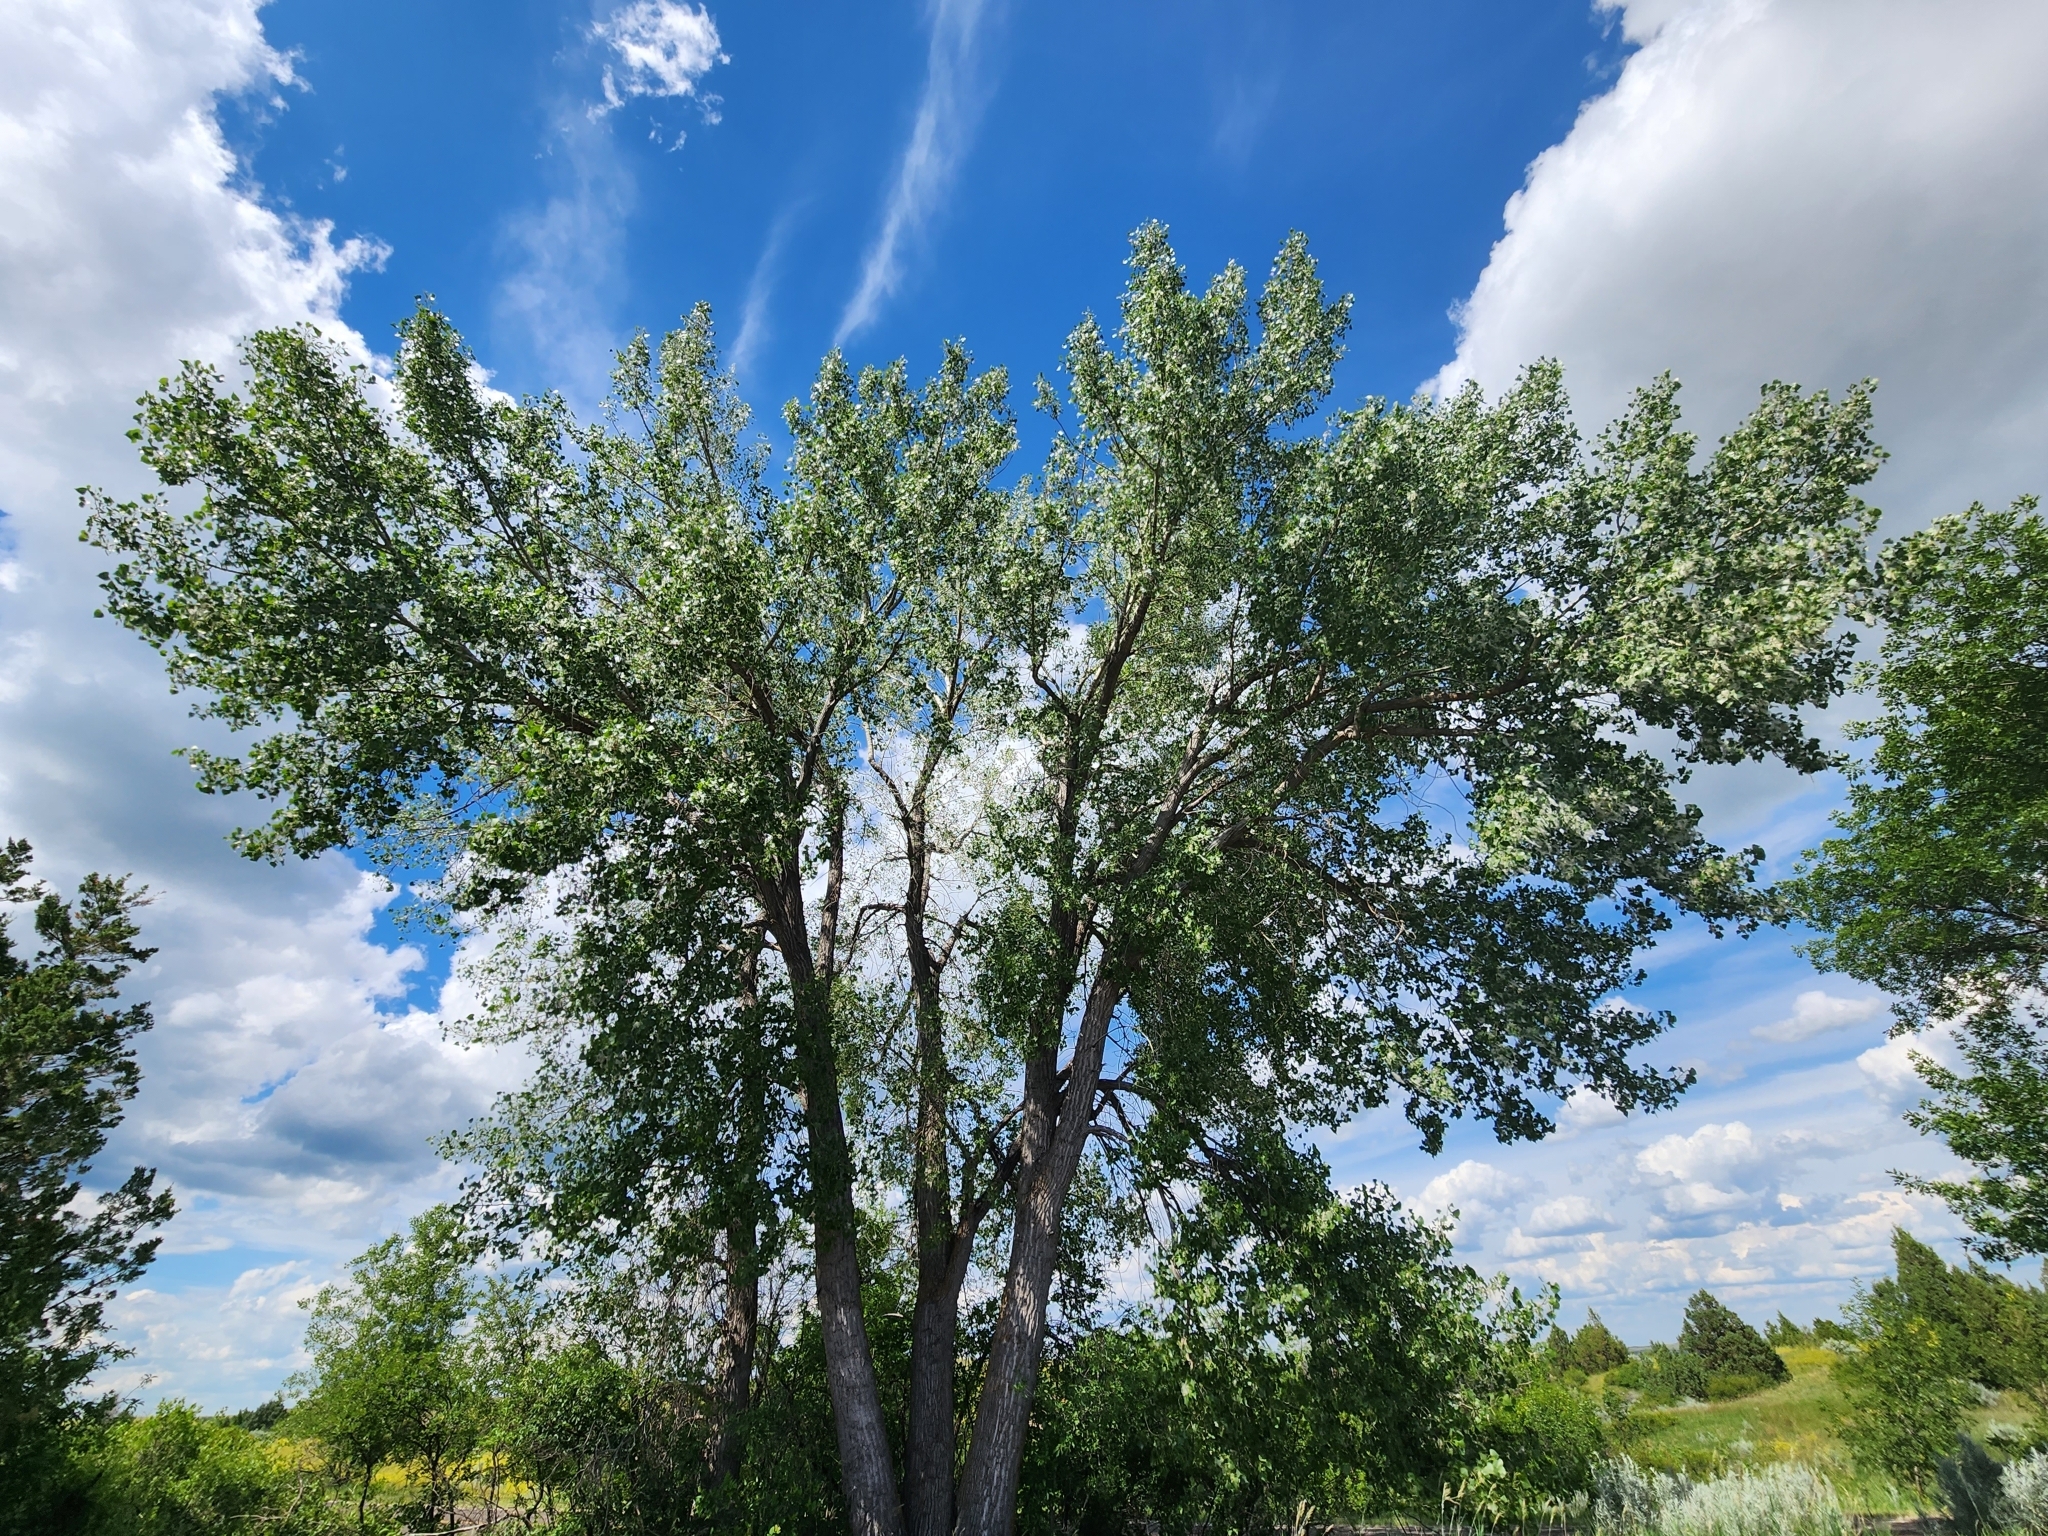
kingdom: Plantae
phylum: Tracheophyta
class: Magnoliopsida
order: Malpighiales
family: Salicaceae
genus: Populus
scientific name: Populus deltoides
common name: Eastern cottonwood
